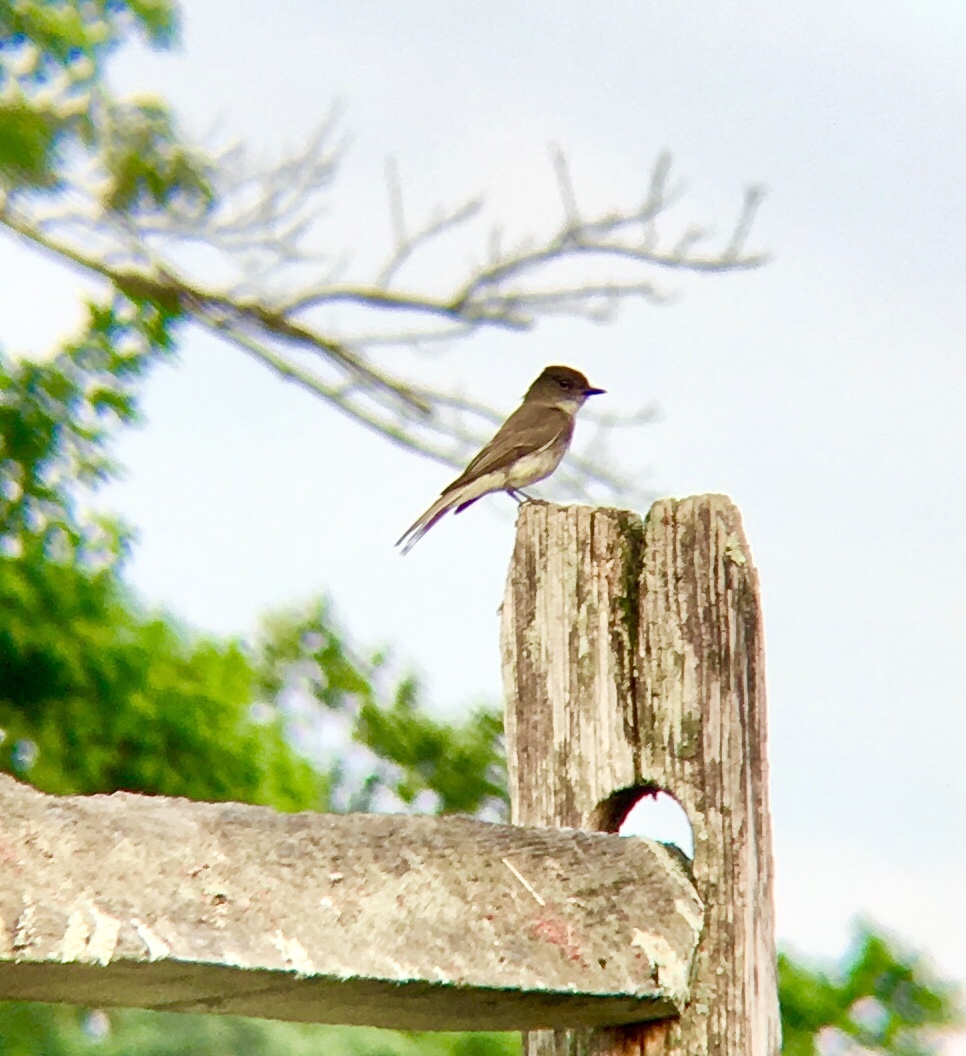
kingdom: Animalia
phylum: Chordata
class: Aves
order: Passeriformes
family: Tyrannidae
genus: Sayornis
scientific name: Sayornis phoebe
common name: Eastern phoebe
